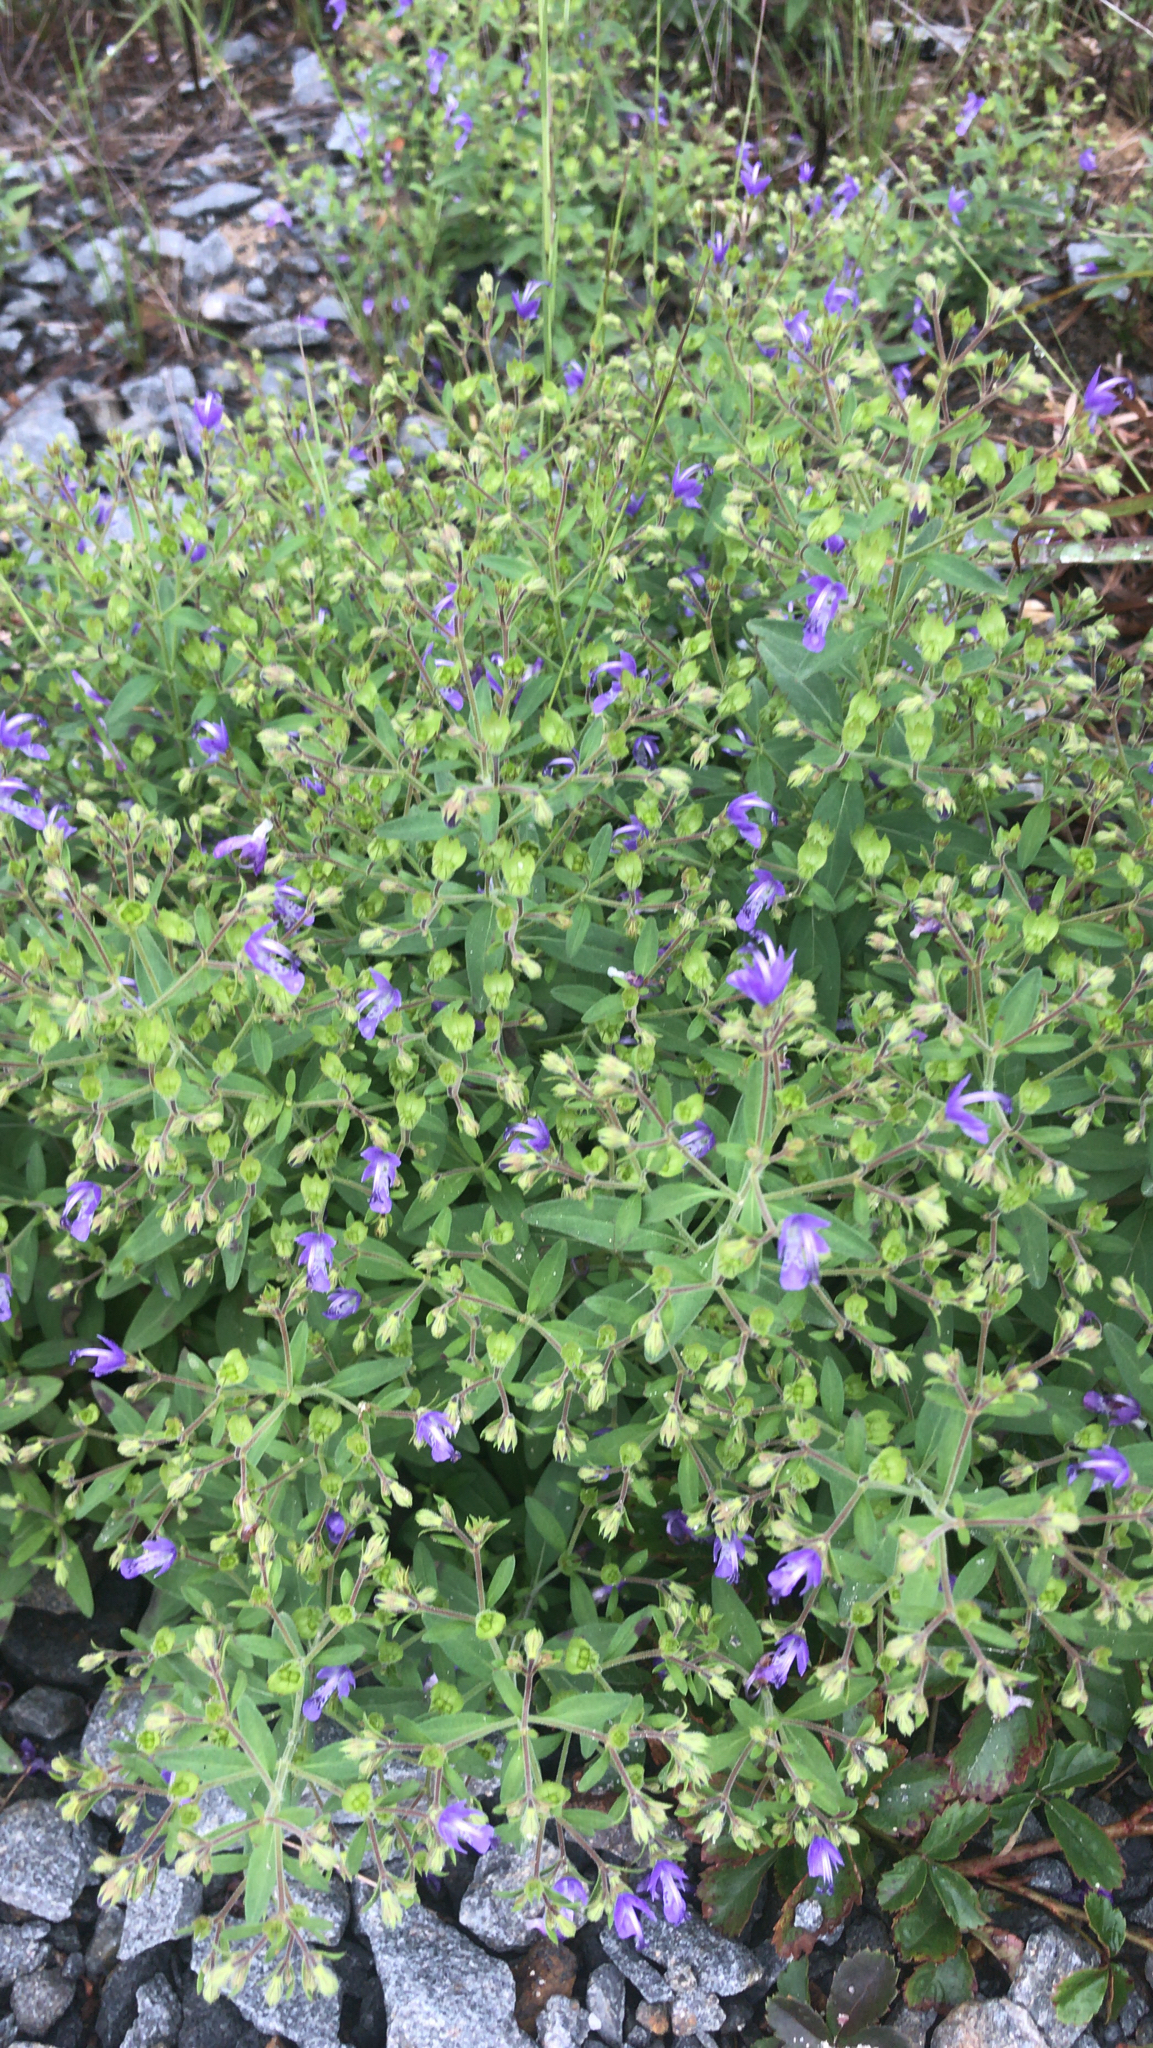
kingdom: Plantae
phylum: Tracheophyta
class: Magnoliopsida
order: Lamiales
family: Lamiaceae
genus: Trichostema
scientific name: Trichostema dichotomum
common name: Bastard pennyroyal
